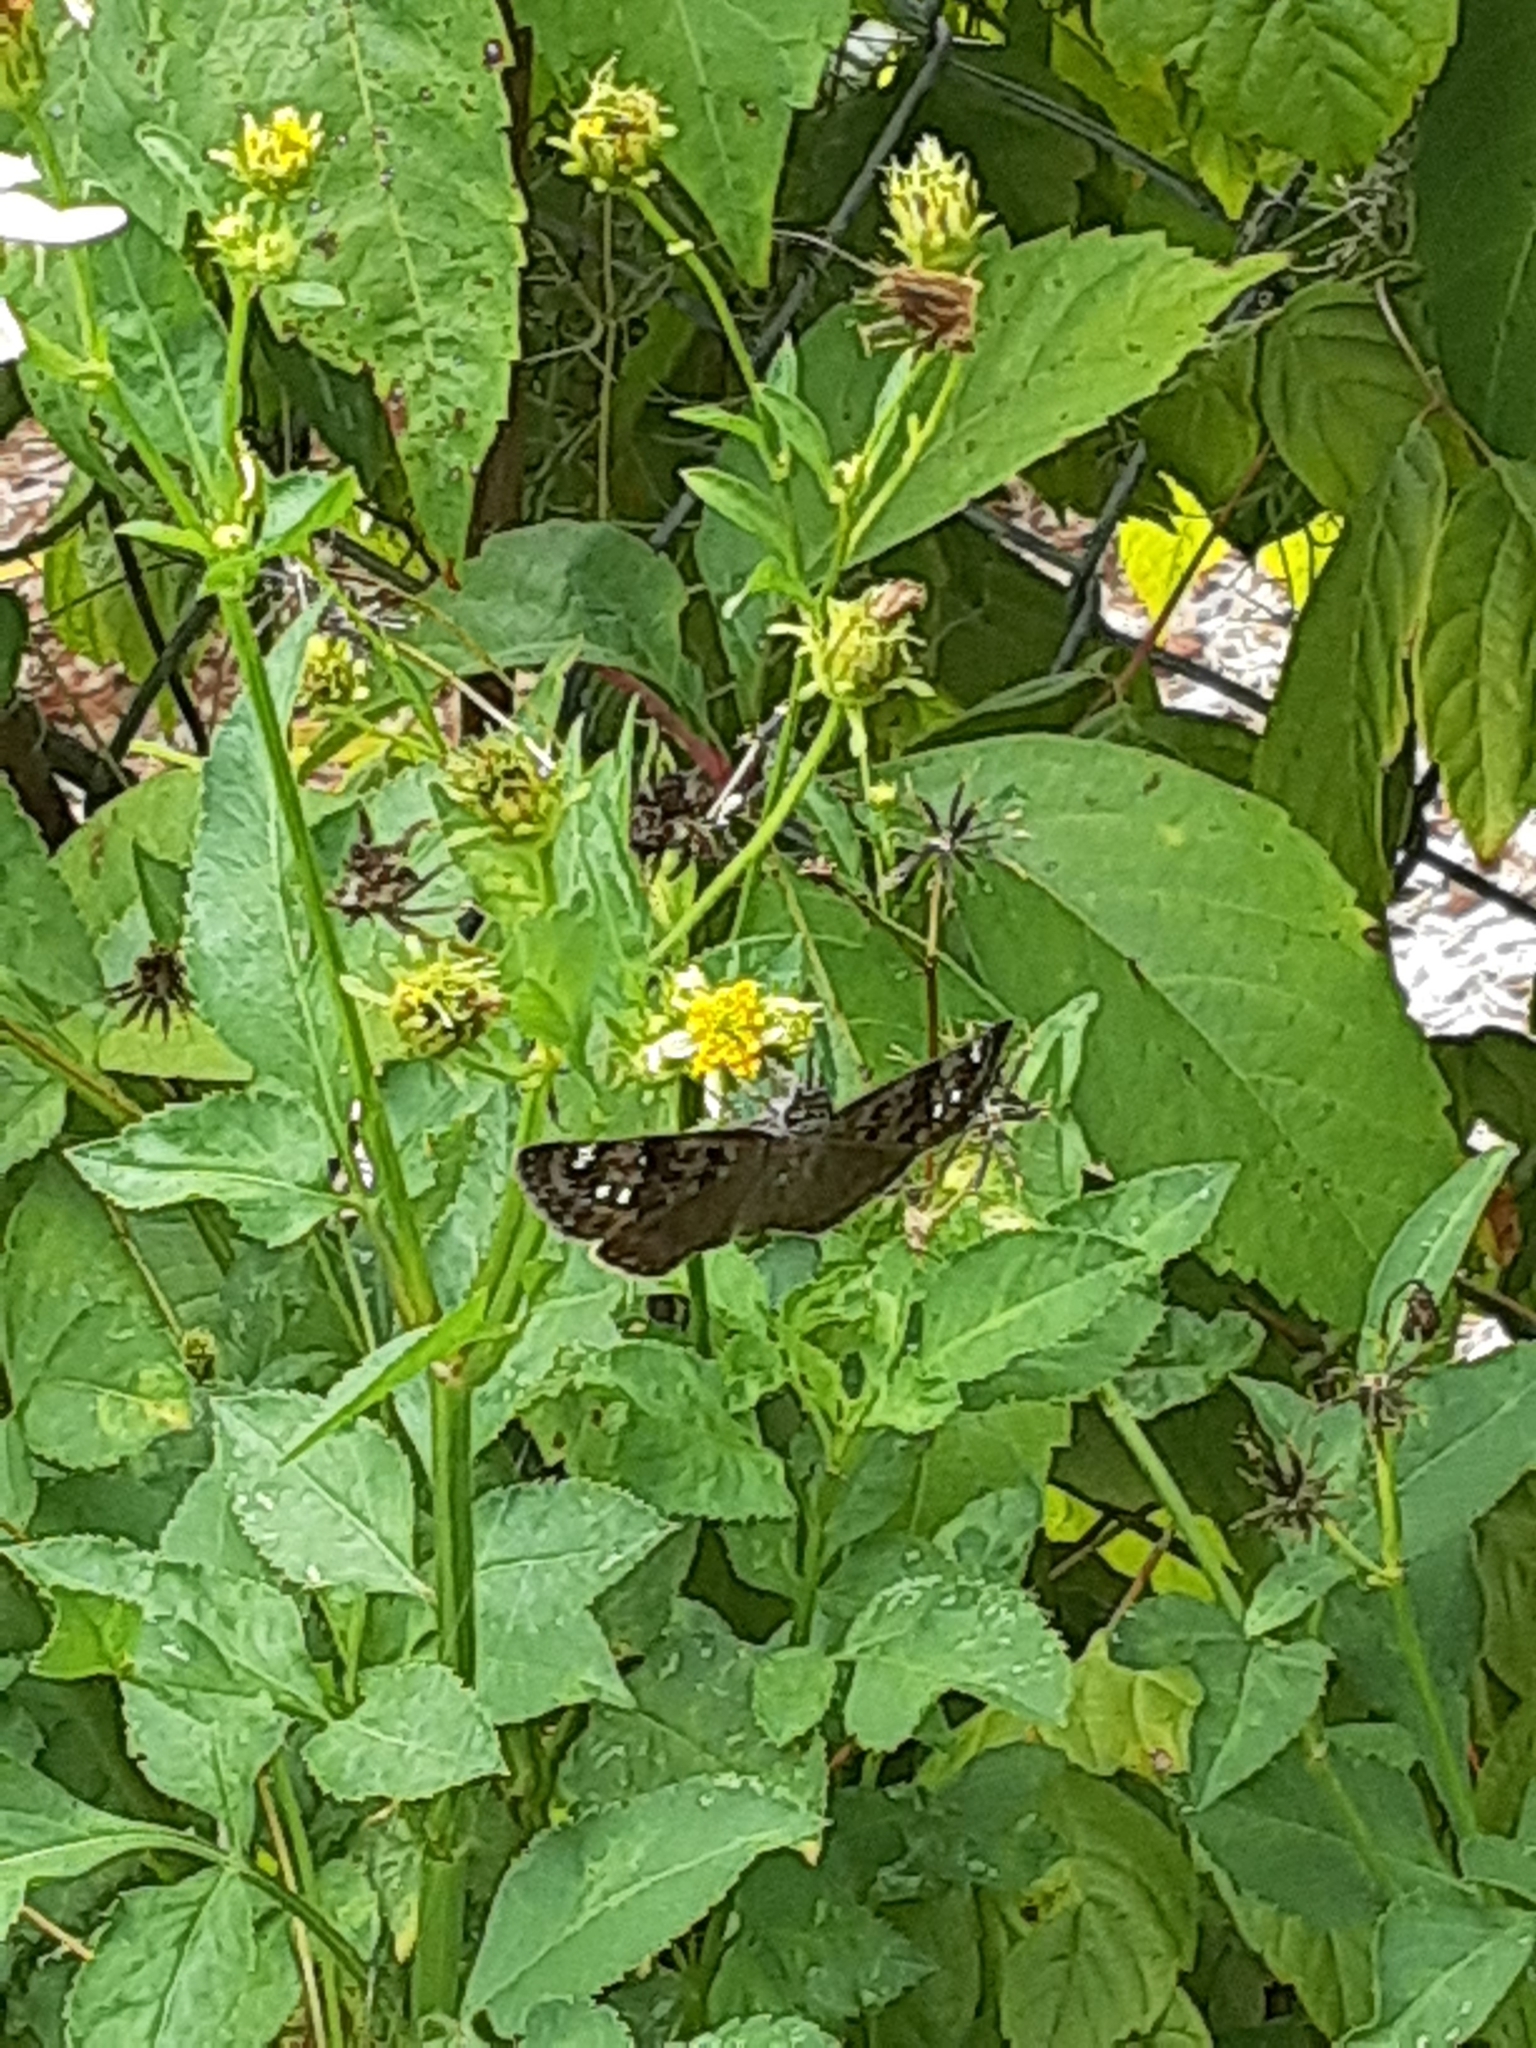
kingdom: Animalia
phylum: Arthropoda
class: Insecta
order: Lepidoptera
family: Hesperiidae
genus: Erynnis
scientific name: Erynnis horatius
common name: Horace's duskywing
